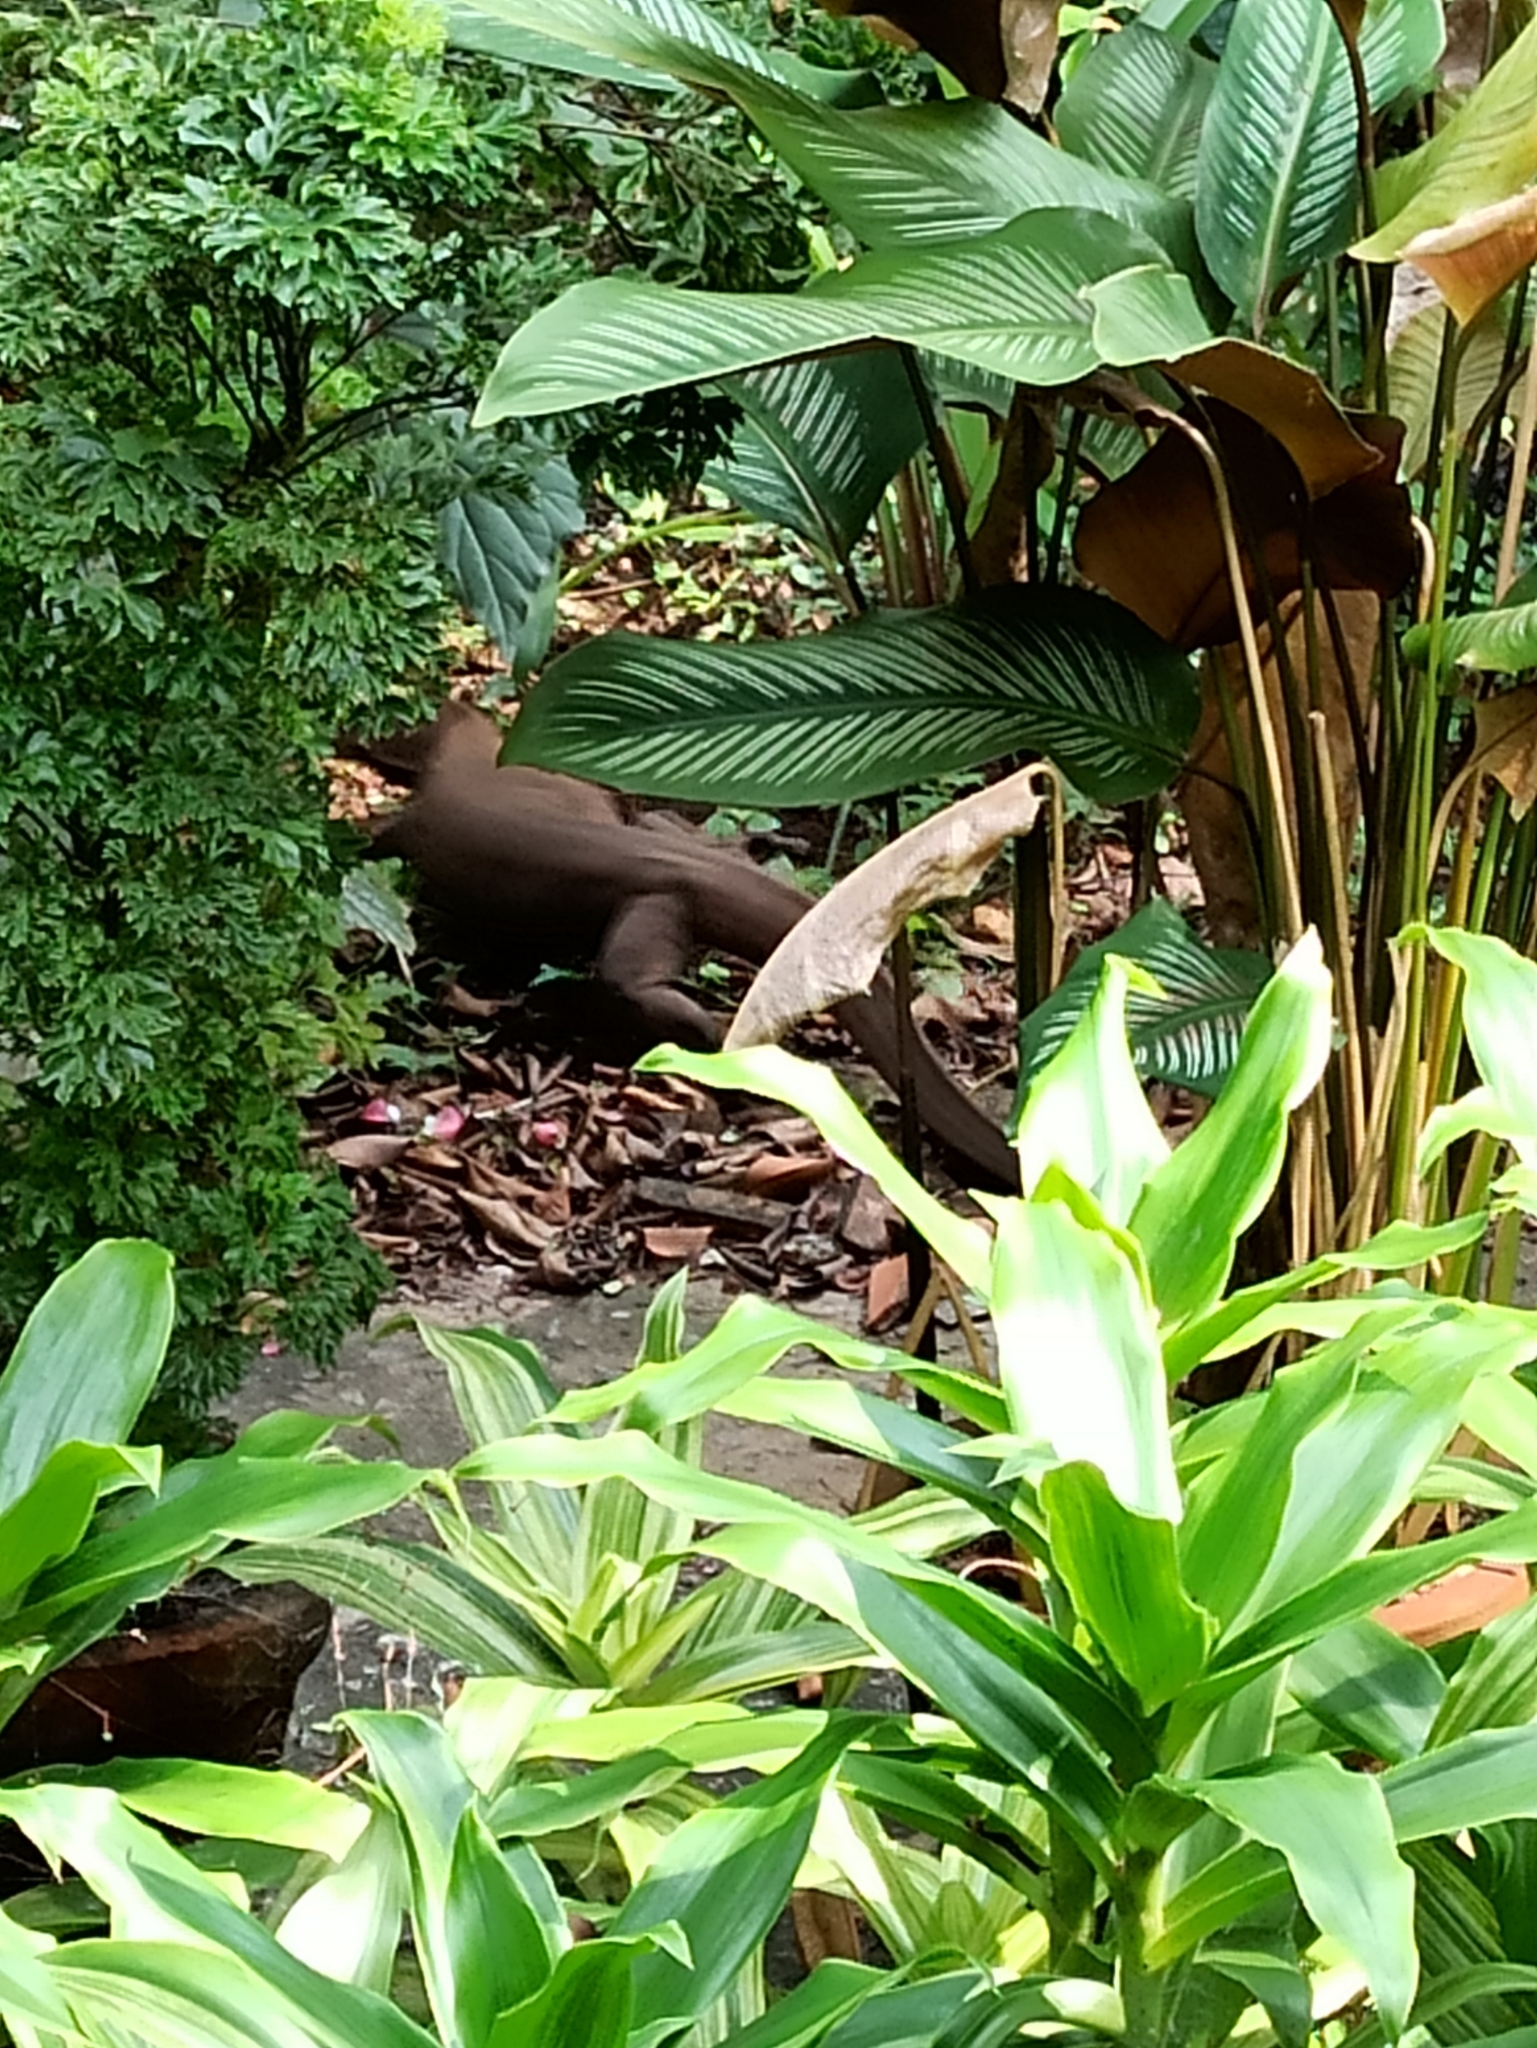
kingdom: Animalia
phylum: Chordata
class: Squamata
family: Varanidae
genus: Varanus
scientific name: Varanus bengalensis
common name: Bengal monitor
